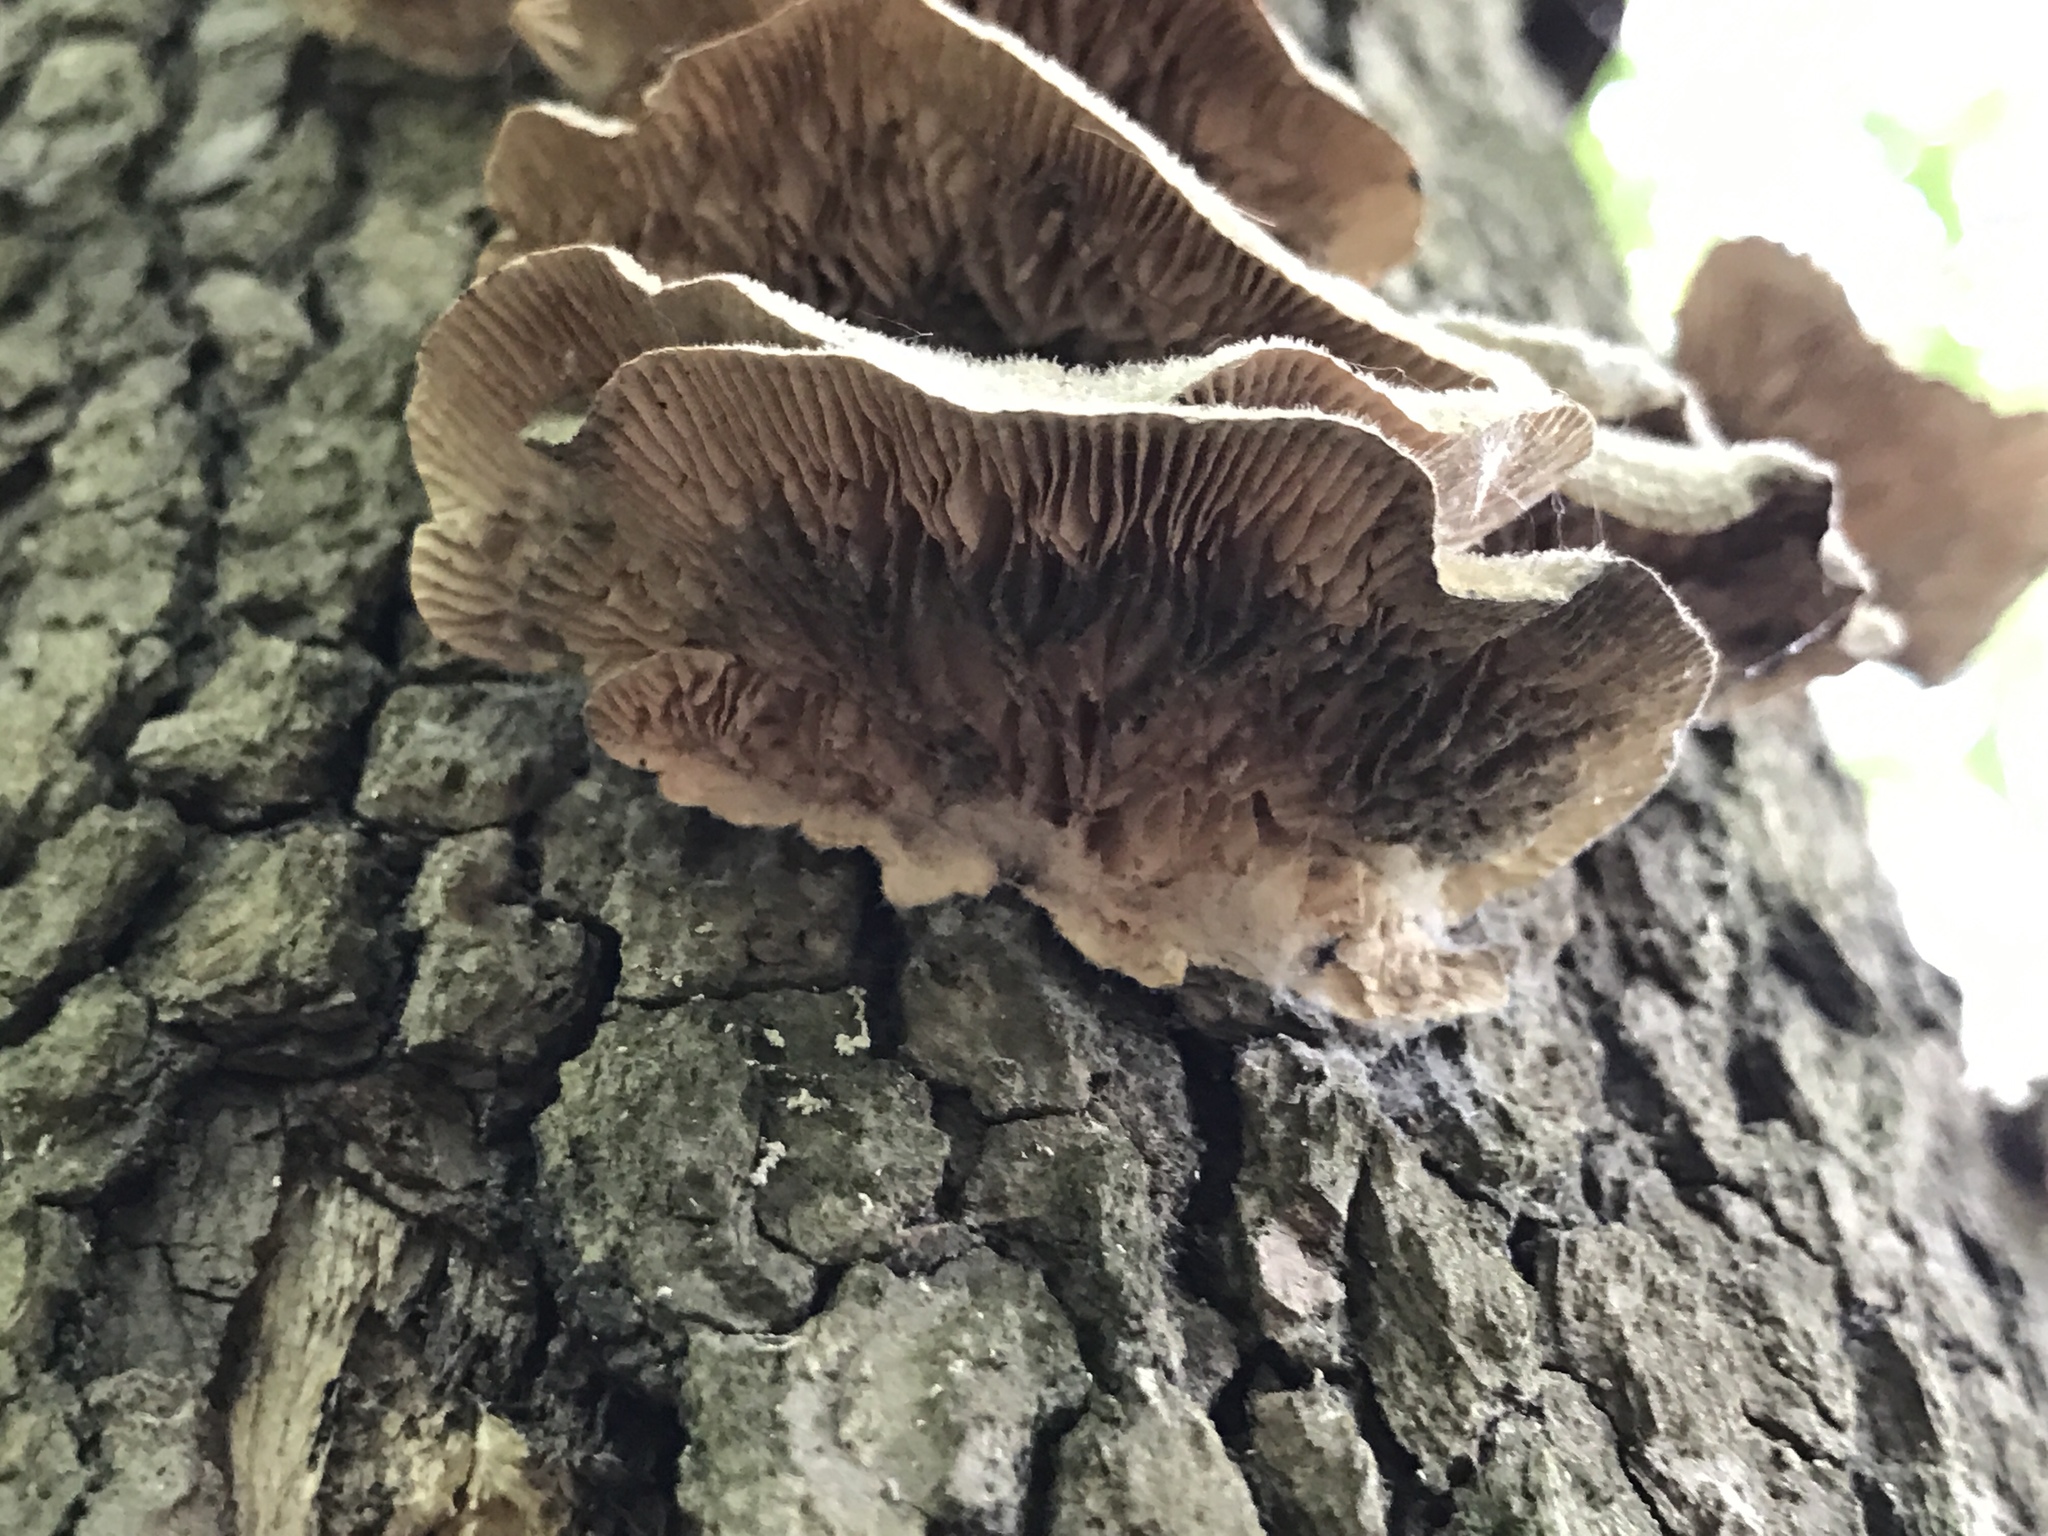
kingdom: Fungi
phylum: Basidiomycota
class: Agaricomycetes
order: Polyporales
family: Polyporaceae
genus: Lenzites
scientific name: Lenzites betulinus
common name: Birch mazegill
